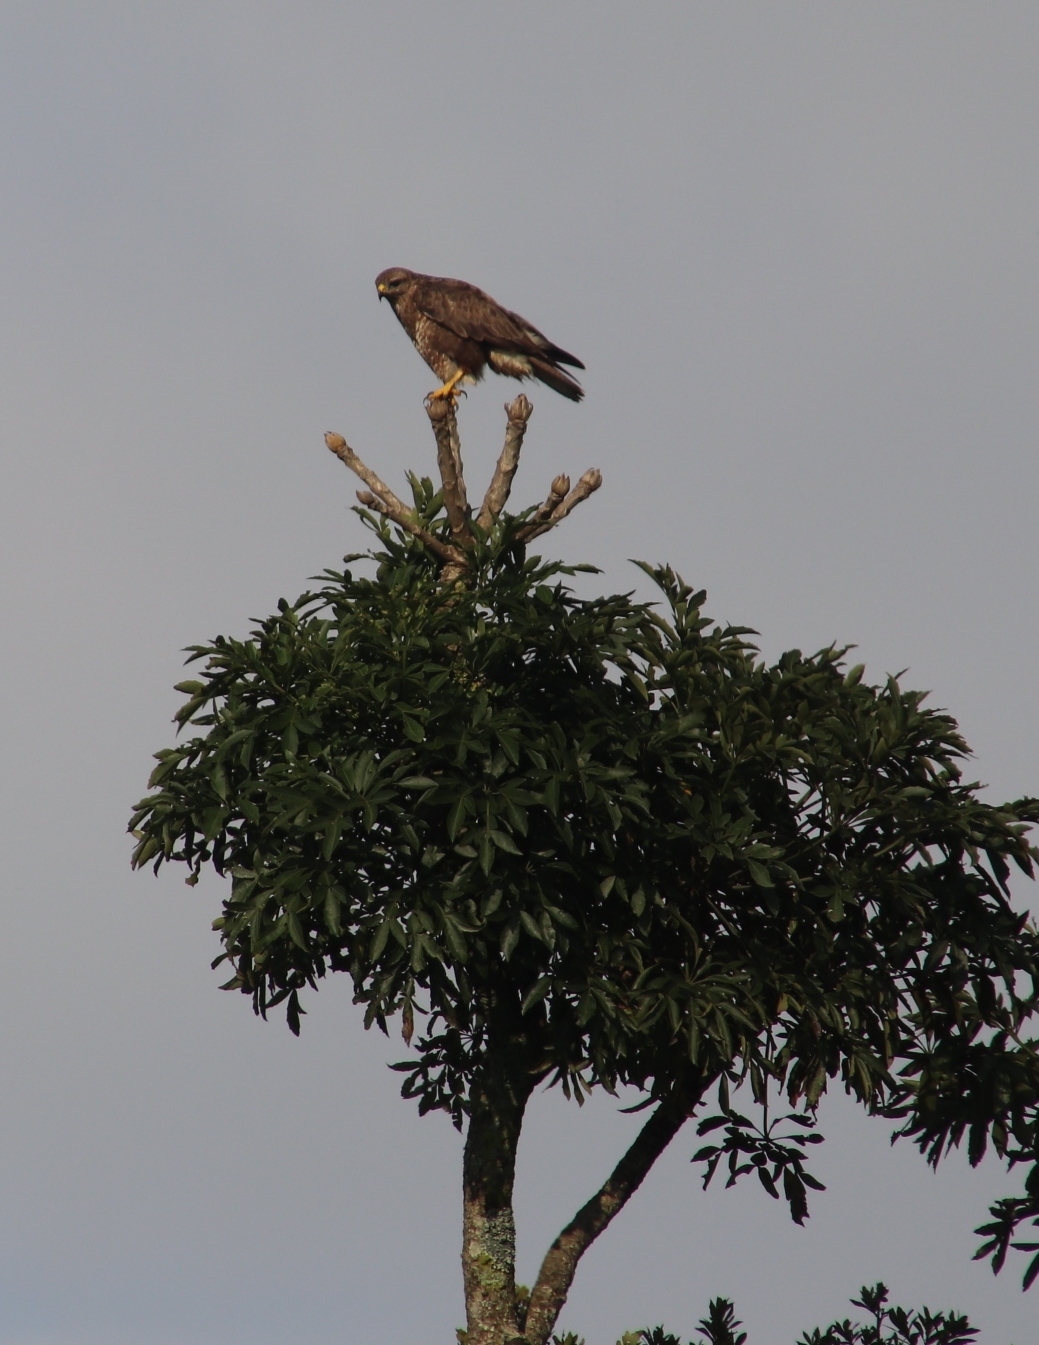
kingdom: Animalia
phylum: Chordata
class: Aves
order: Accipitriformes
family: Accipitridae
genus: Buteo
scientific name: Buteo buteo
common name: Common buzzard
